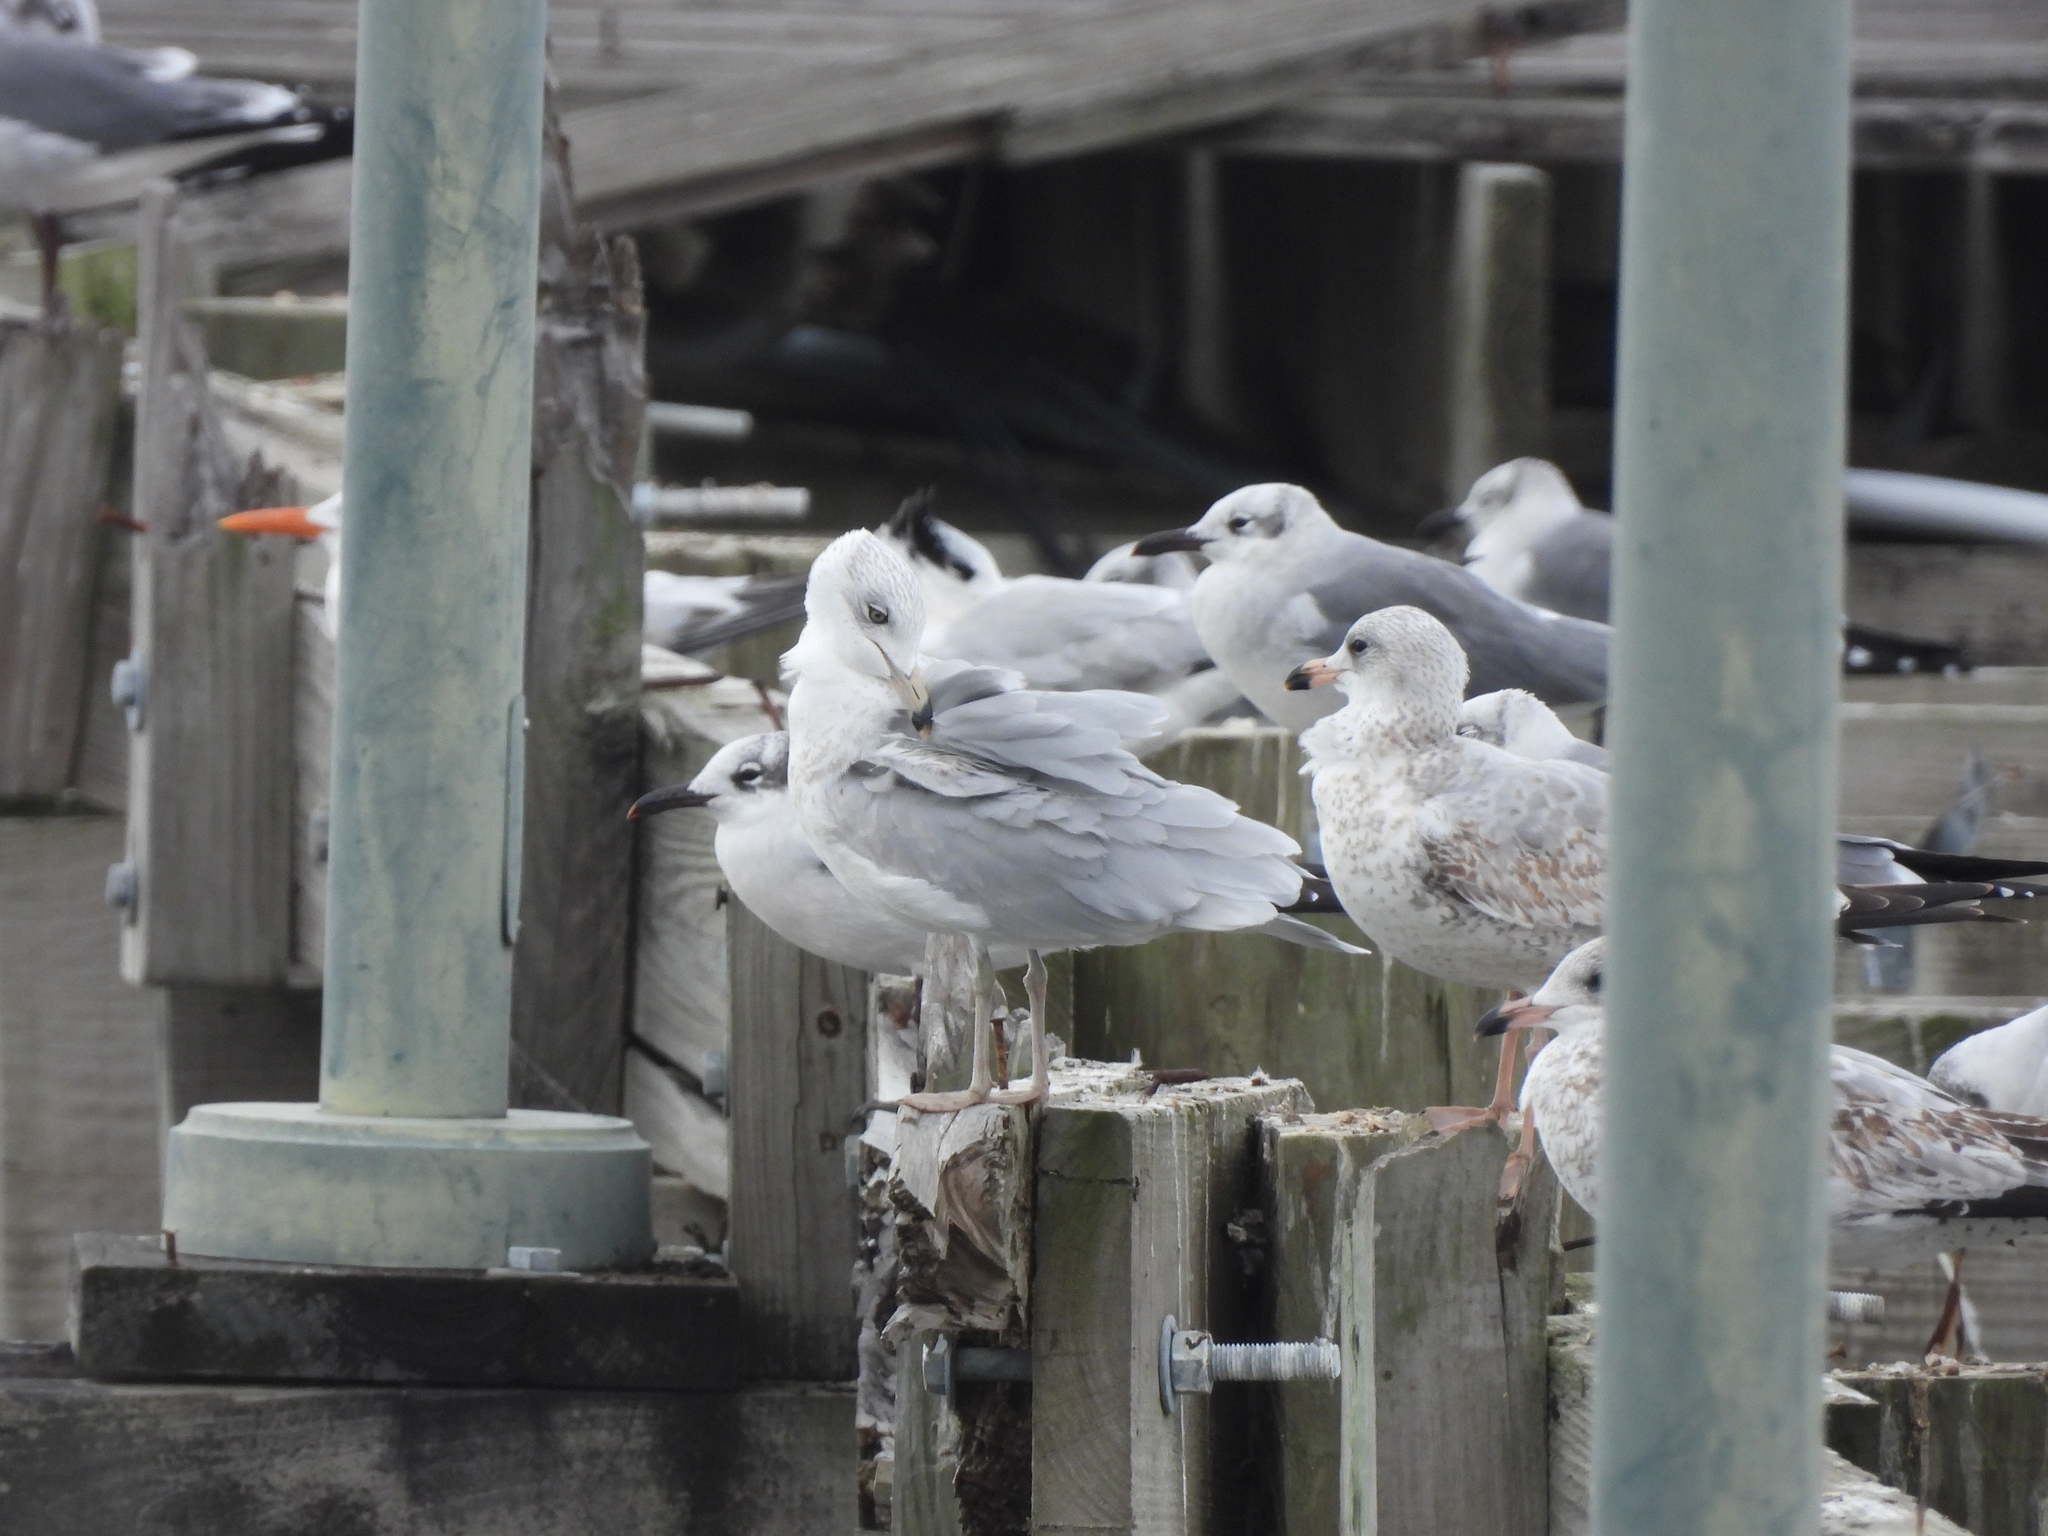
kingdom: Animalia
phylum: Chordata
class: Aves
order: Charadriiformes
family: Laridae
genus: Larus
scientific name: Larus delawarensis
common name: Ring-billed gull
